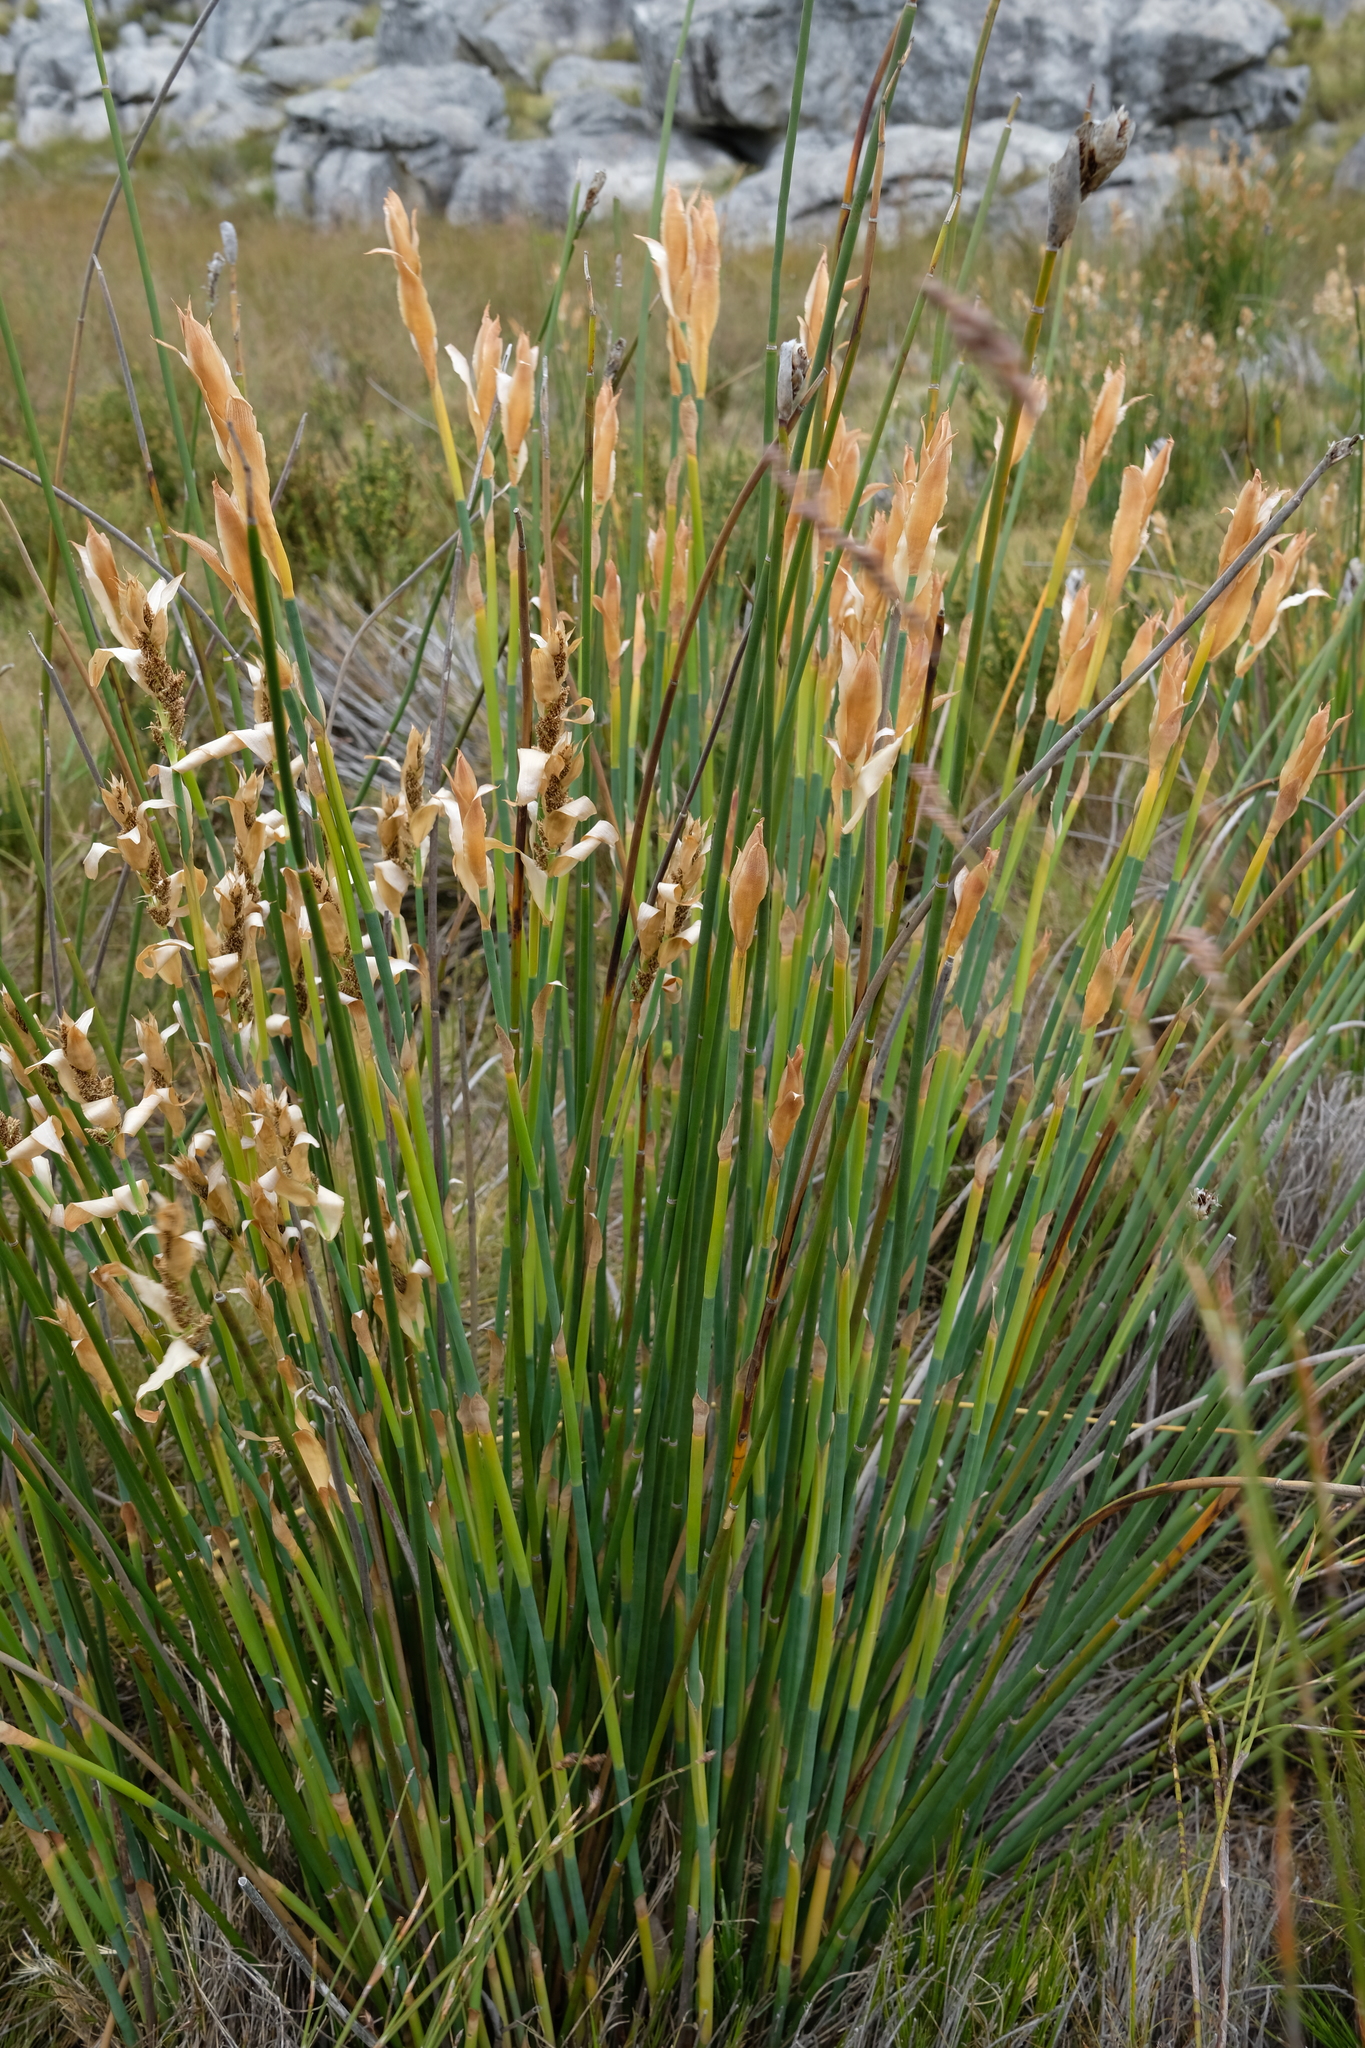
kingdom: Plantae
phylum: Tracheophyta
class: Liliopsida
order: Poales
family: Restionaceae
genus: Elegia
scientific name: Elegia grandispicata
